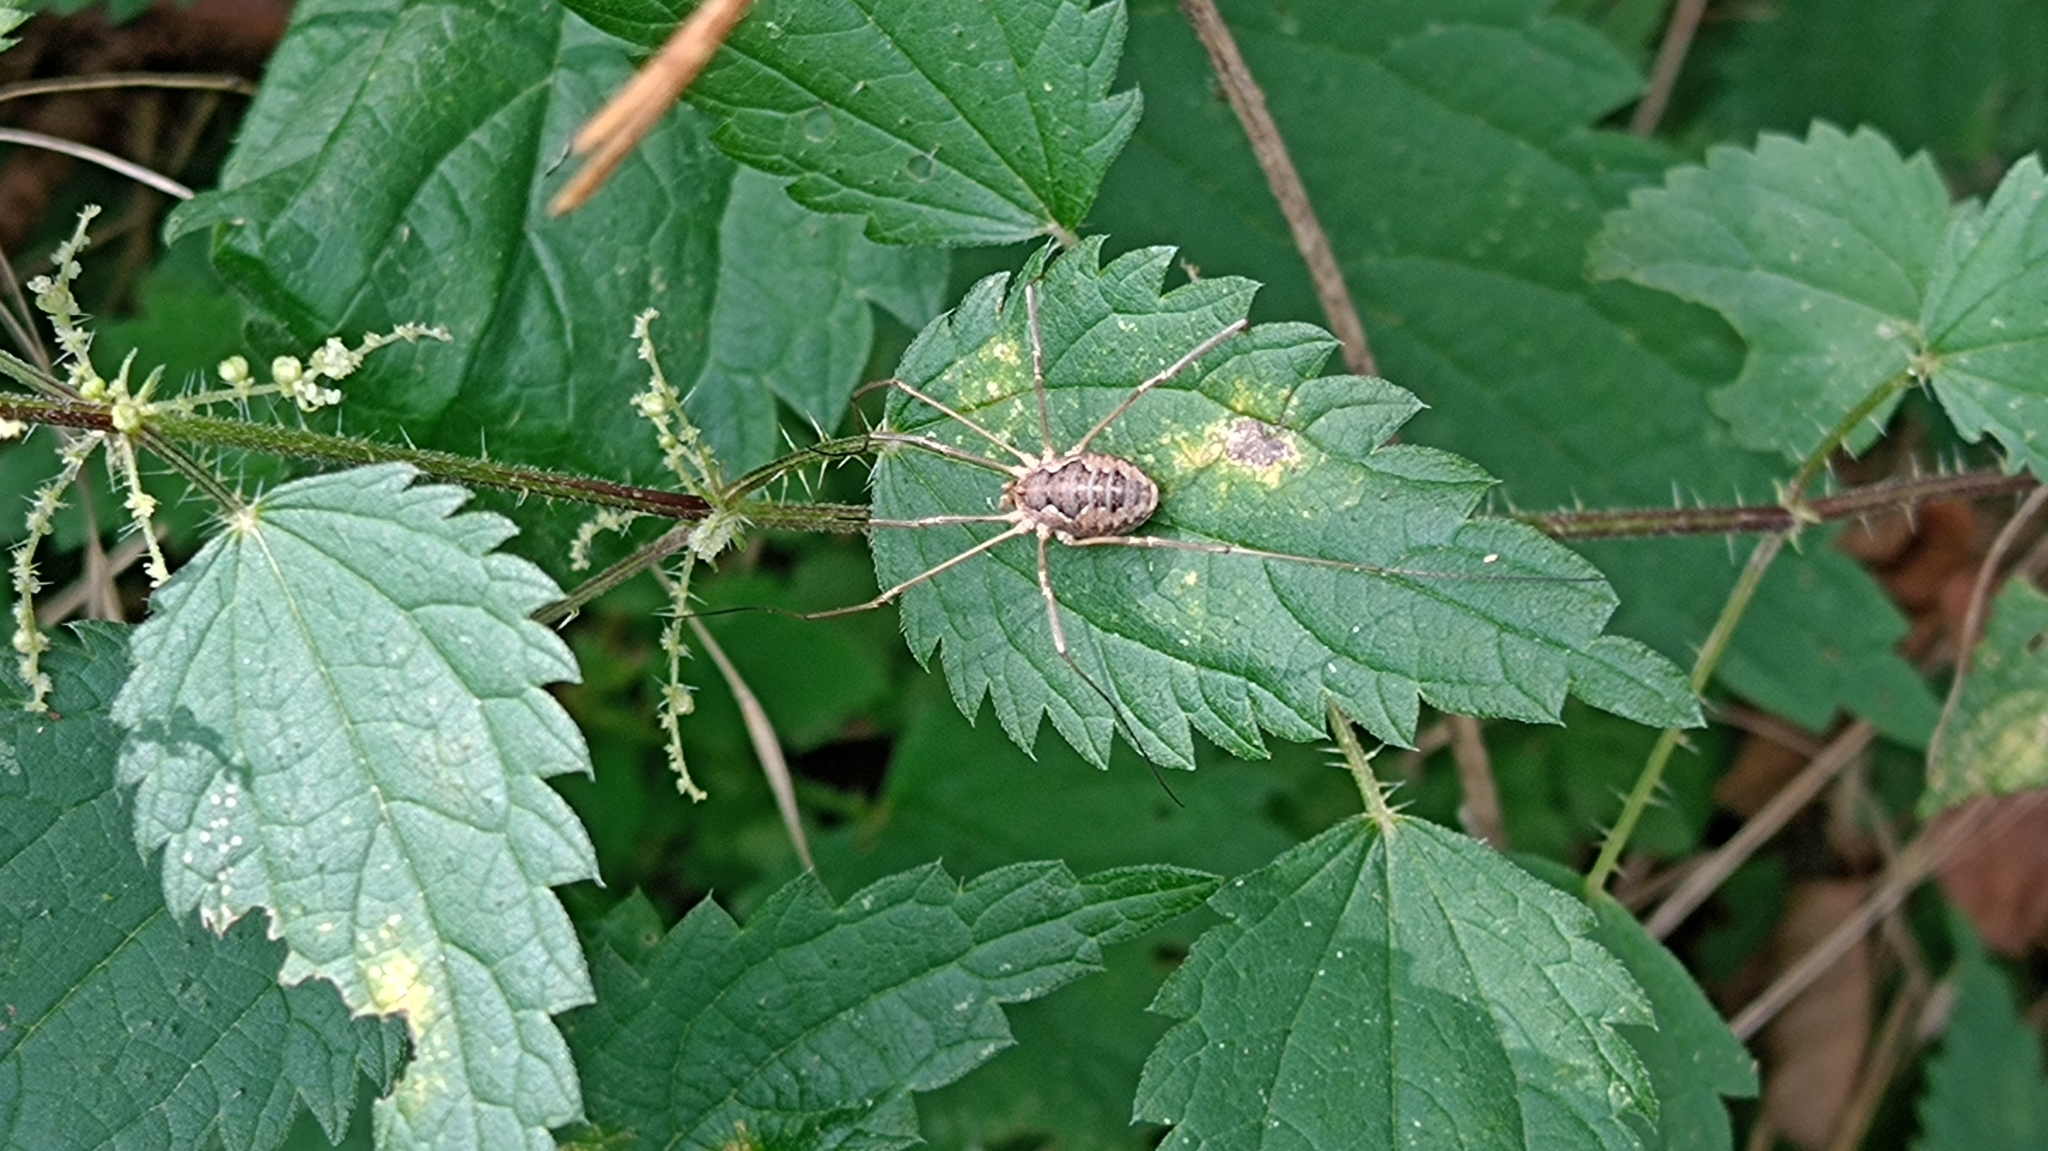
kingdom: Animalia
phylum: Arthropoda
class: Arachnida
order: Opiliones
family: Phalangiidae
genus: Phalangium
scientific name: Phalangium opilio
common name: Daddy longleg
